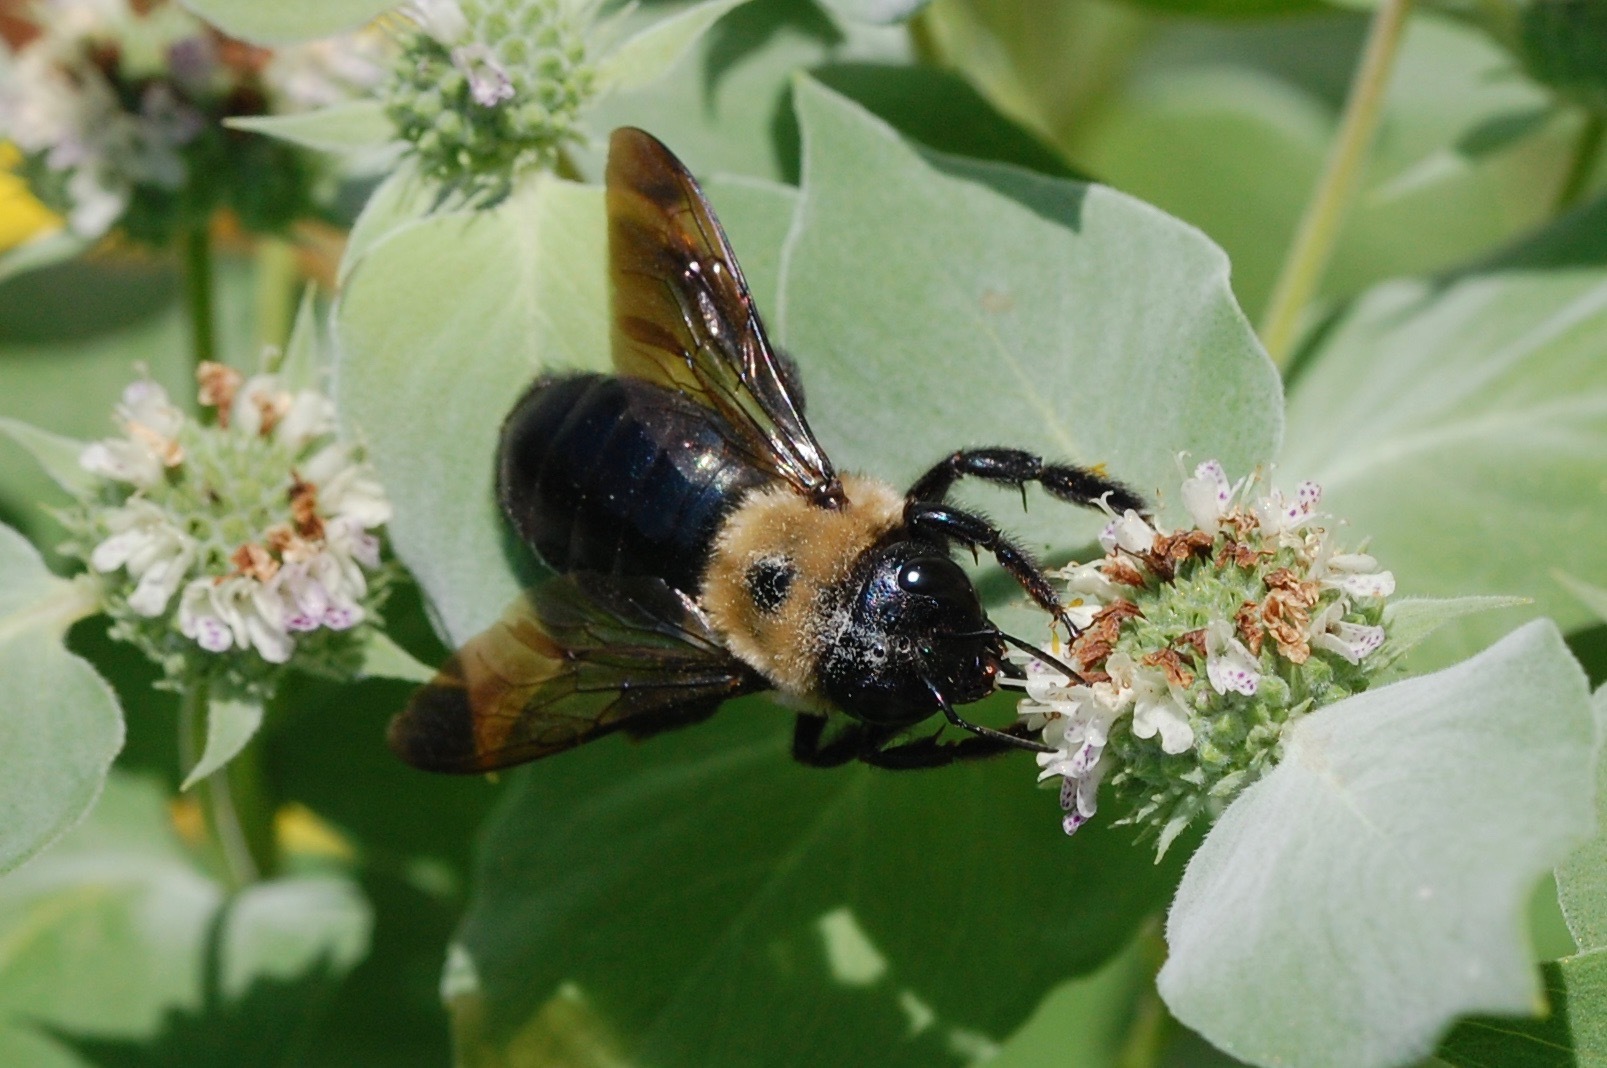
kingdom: Animalia
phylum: Arthropoda
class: Insecta
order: Hymenoptera
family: Apidae
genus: Xylocopa
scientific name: Xylocopa virginica
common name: Carpenter bee
